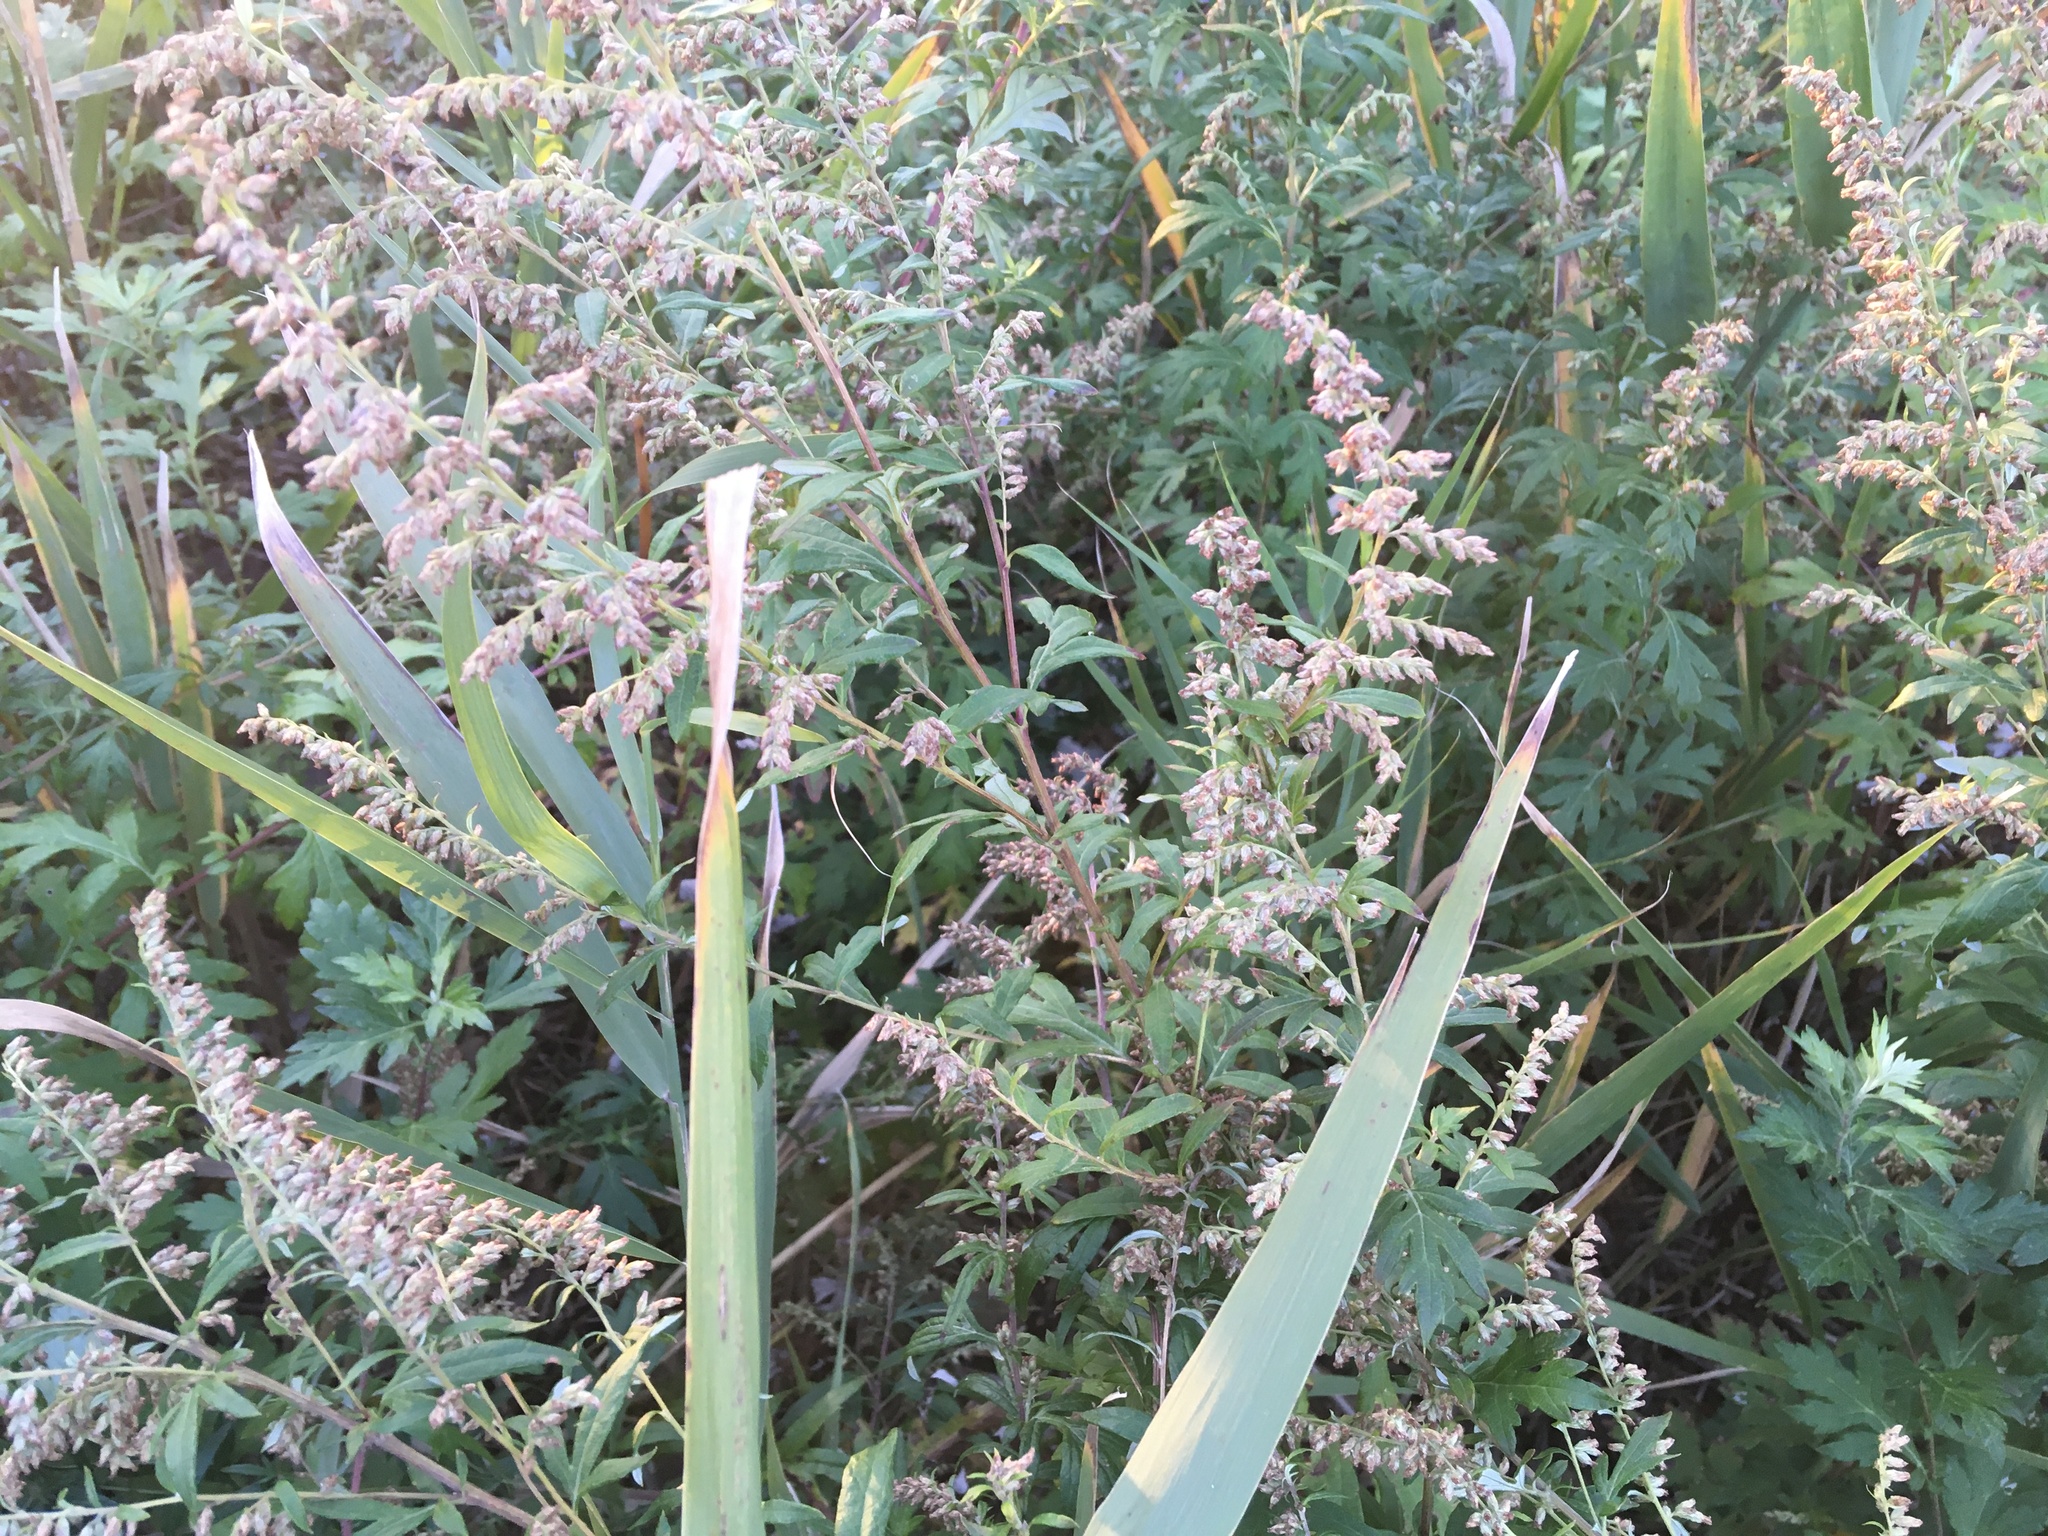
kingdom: Plantae
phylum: Tracheophyta
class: Magnoliopsida
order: Asterales
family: Asteraceae
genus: Artemisia
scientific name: Artemisia vulgaris
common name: Mugwort
